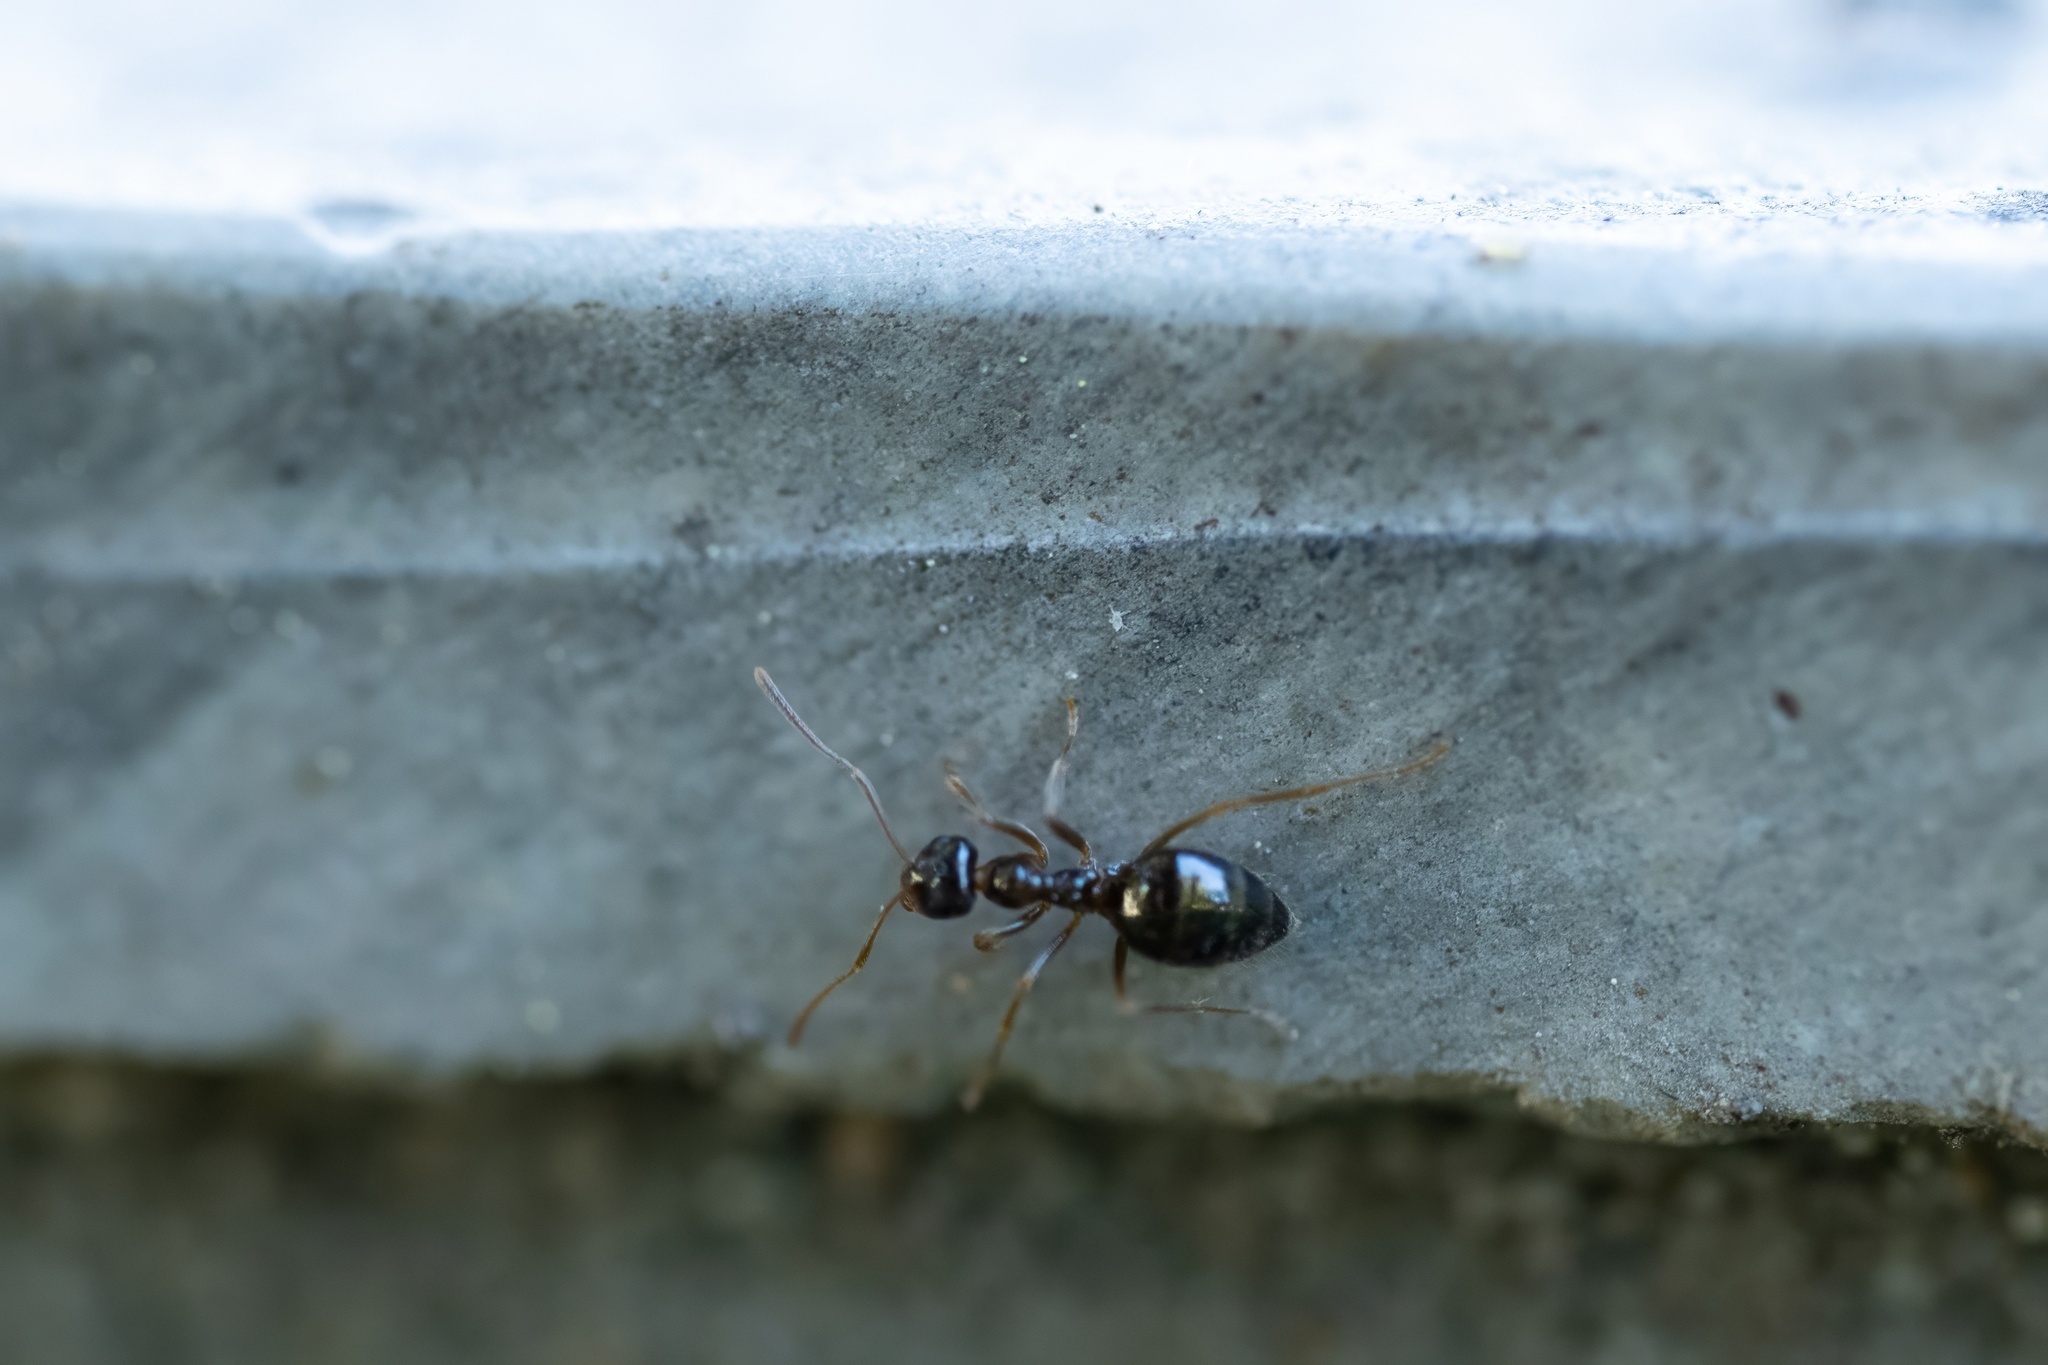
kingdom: Animalia
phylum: Arthropoda
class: Insecta
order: Hymenoptera
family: Formicidae
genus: Prenolepis
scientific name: Prenolepis imparis
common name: Small honey ant
